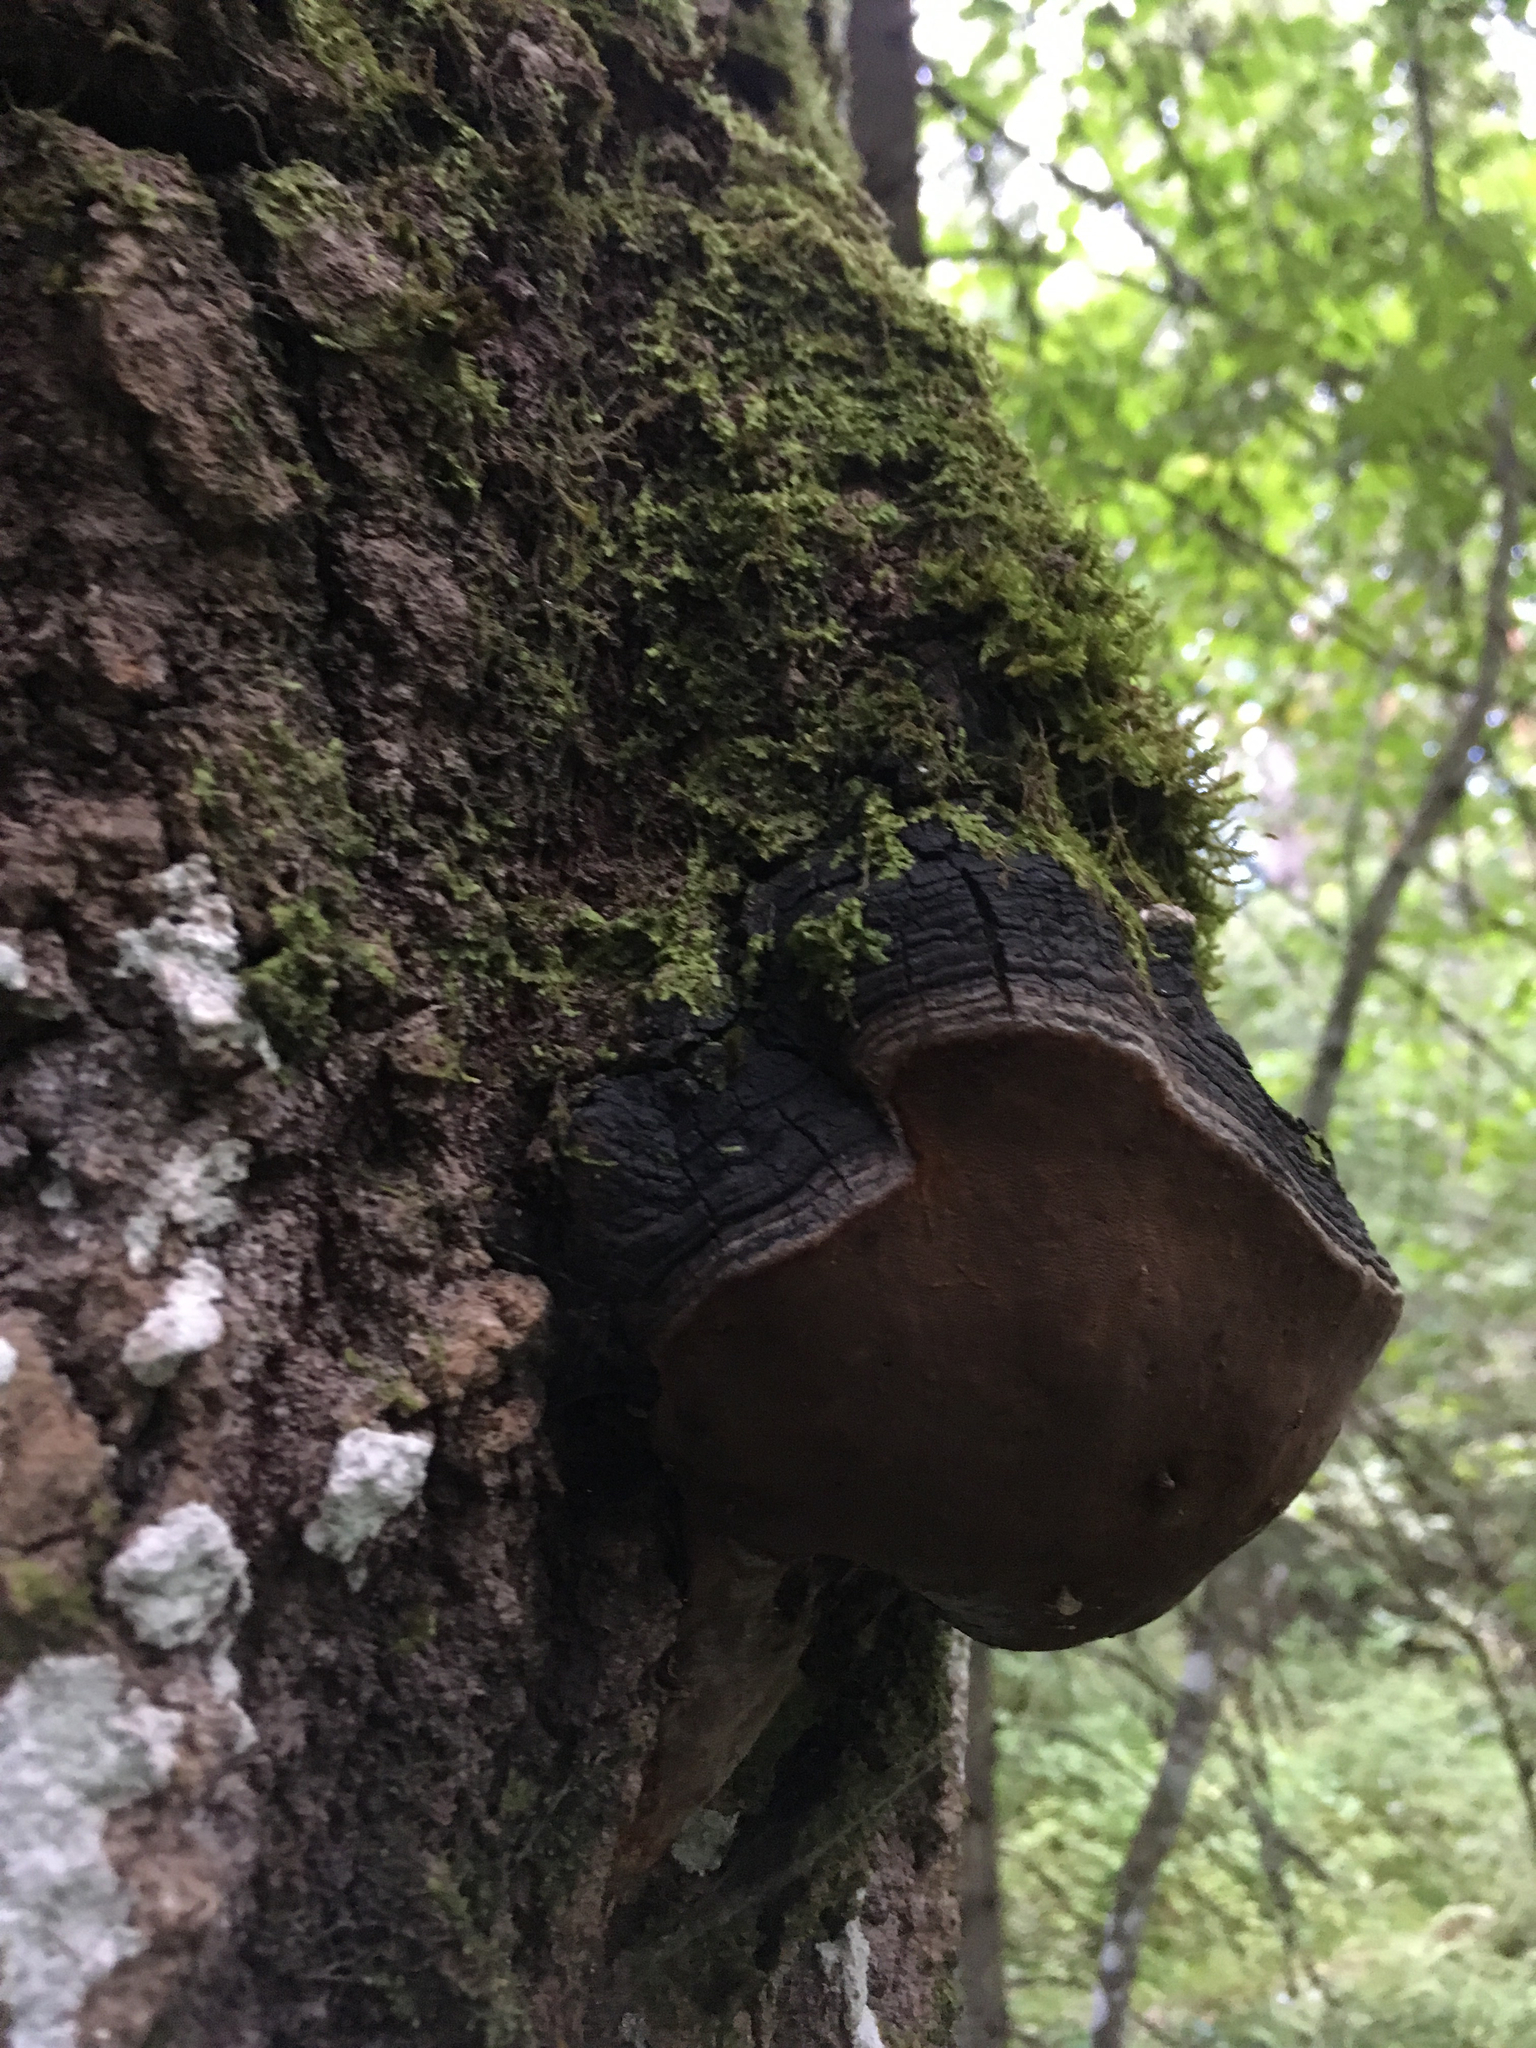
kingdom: Fungi
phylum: Basidiomycota
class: Agaricomycetes
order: Hymenochaetales
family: Hymenochaetaceae
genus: Phellinus
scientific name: Phellinus tremulae
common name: Aspen bracket
